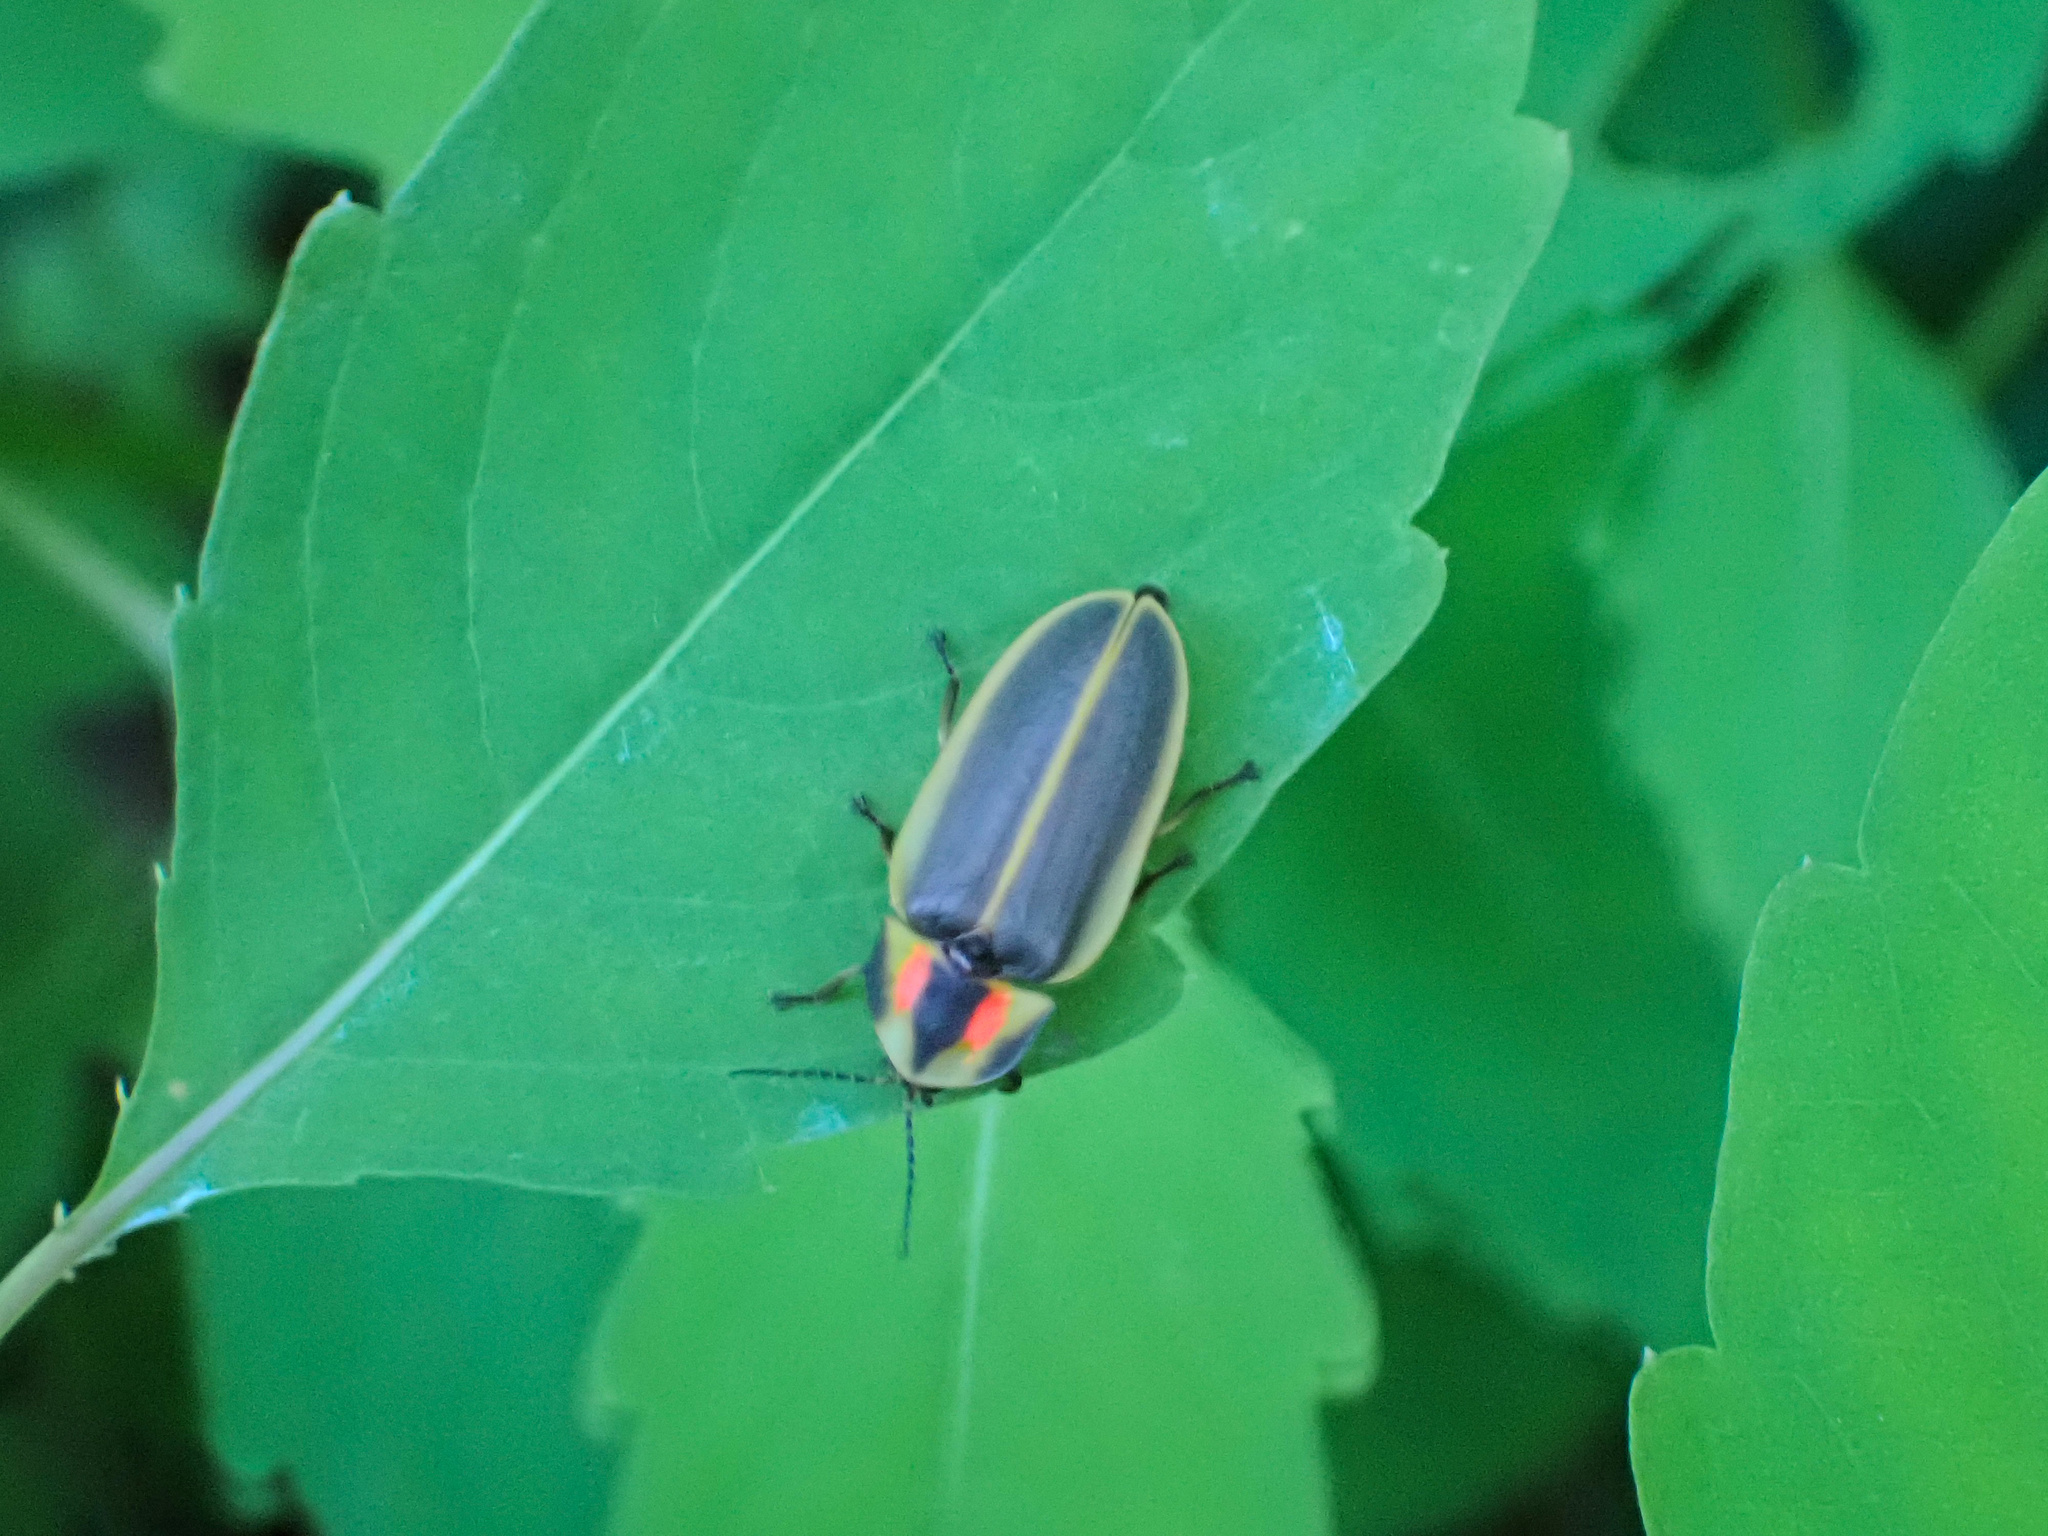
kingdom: Animalia
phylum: Arthropoda
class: Insecta
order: Coleoptera
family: Lampyridae
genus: Pyractomena
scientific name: Pyractomena angulata
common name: Candle firefly
